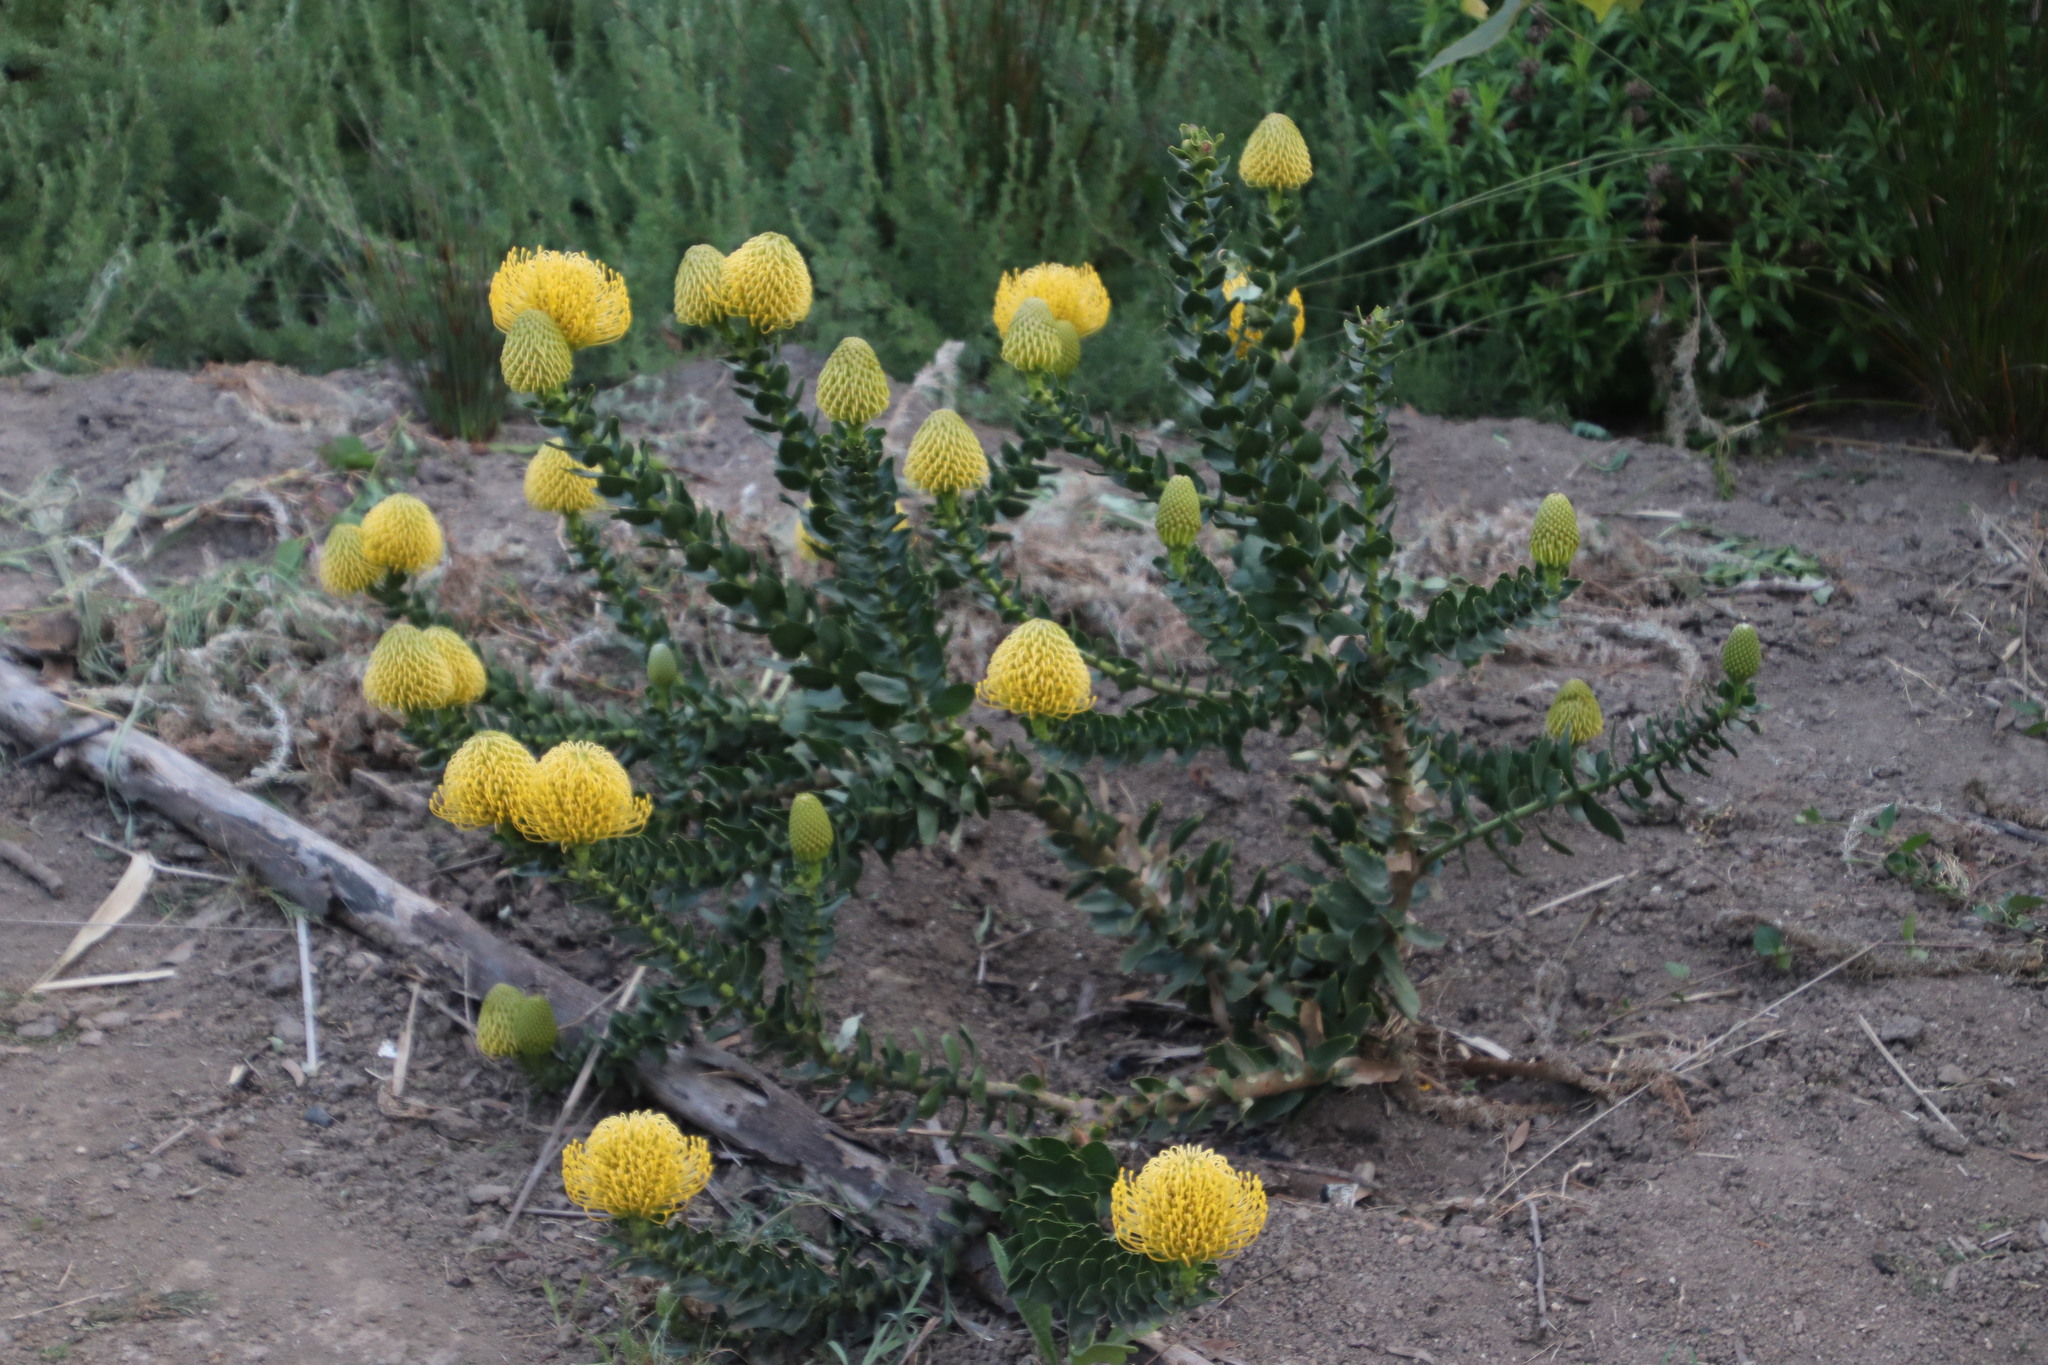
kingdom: Plantae
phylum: Tracheophyta
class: Magnoliopsida
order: Proteales
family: Proteaceae
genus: Leucospermum
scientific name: Leucospermum
